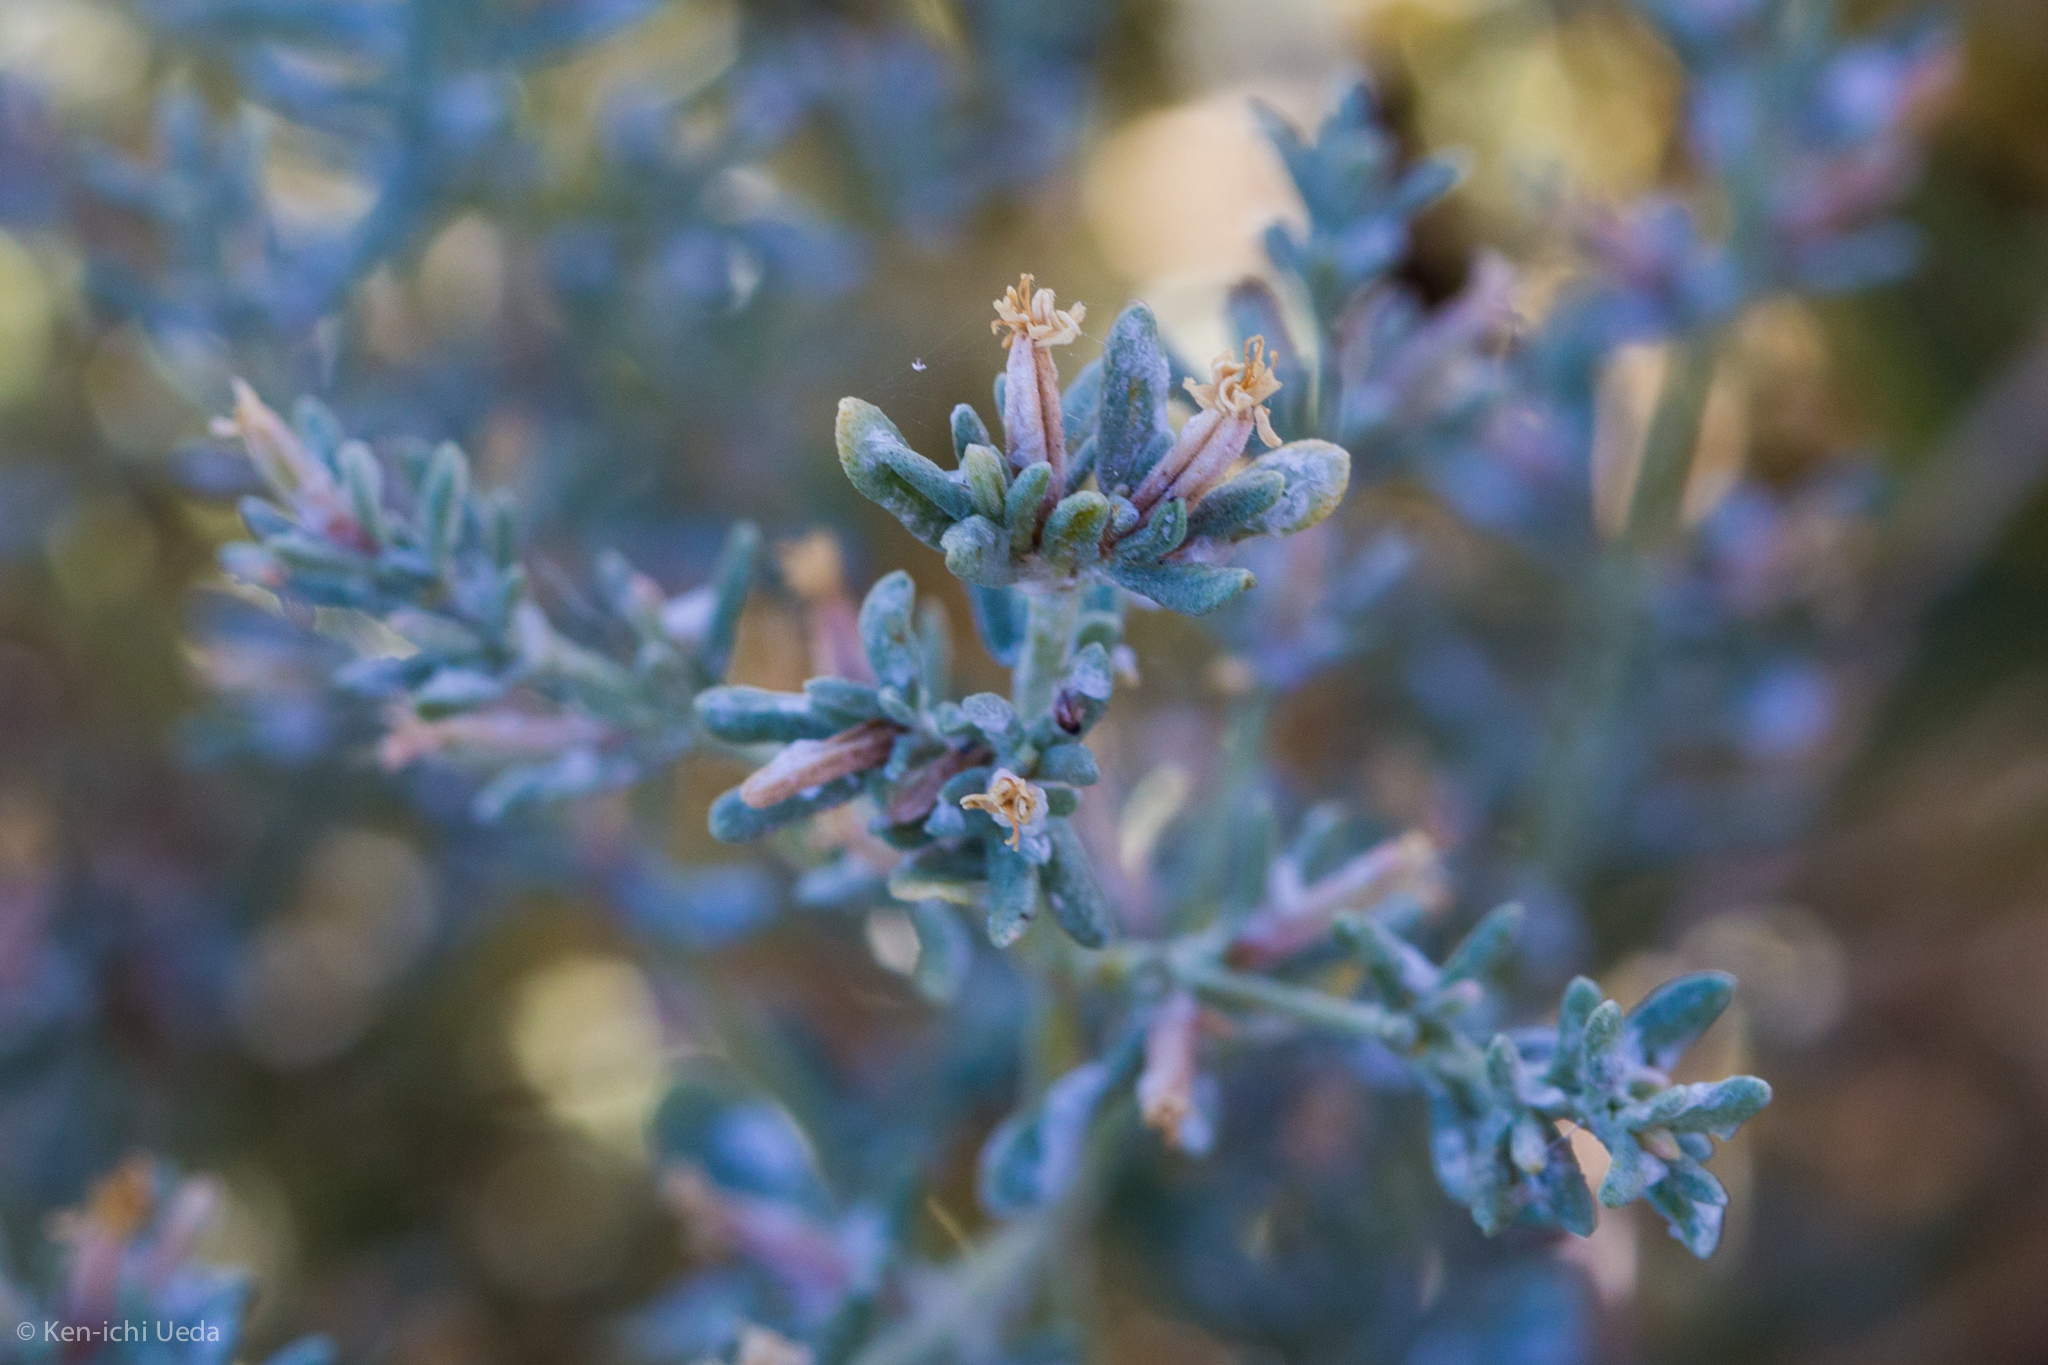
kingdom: Plantae
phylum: Tracheophyta
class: Magnoliopsida
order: Caryophyllales
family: Frankeniaceae
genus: Frankenia
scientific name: Frankenia salina
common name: Alkali seaheath
